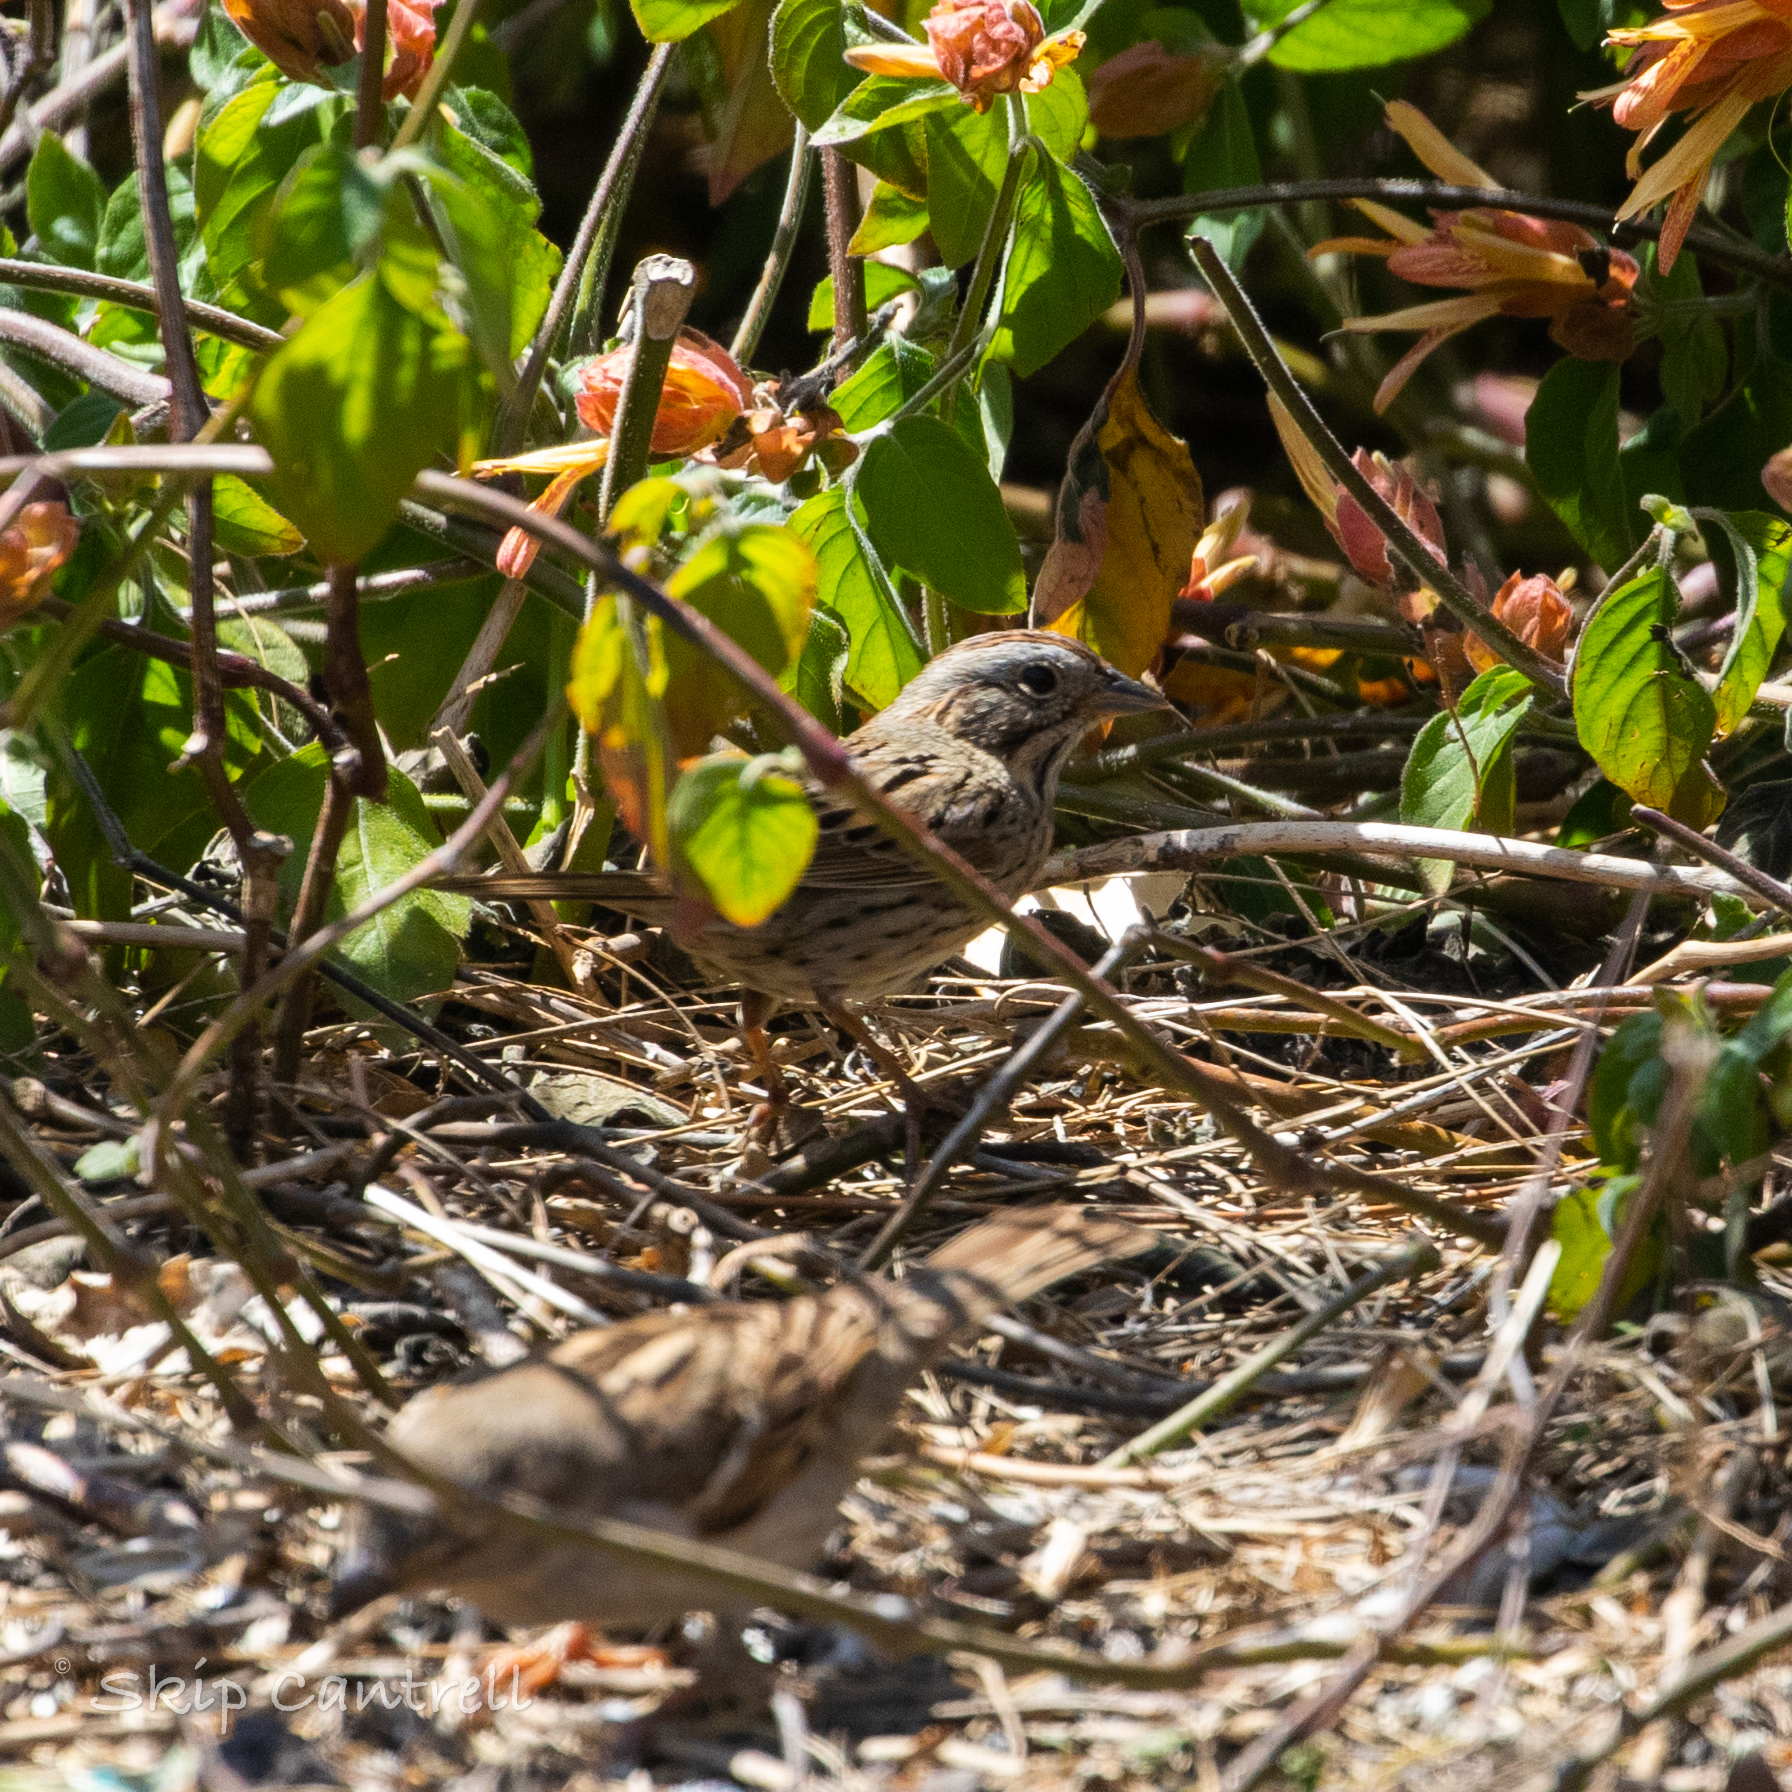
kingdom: Animalia
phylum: Chordata
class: Aves
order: Passeriformes
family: Passerellidae
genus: Melospiza
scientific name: Melospiza lincolnii
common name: Lincoln's sparrow
